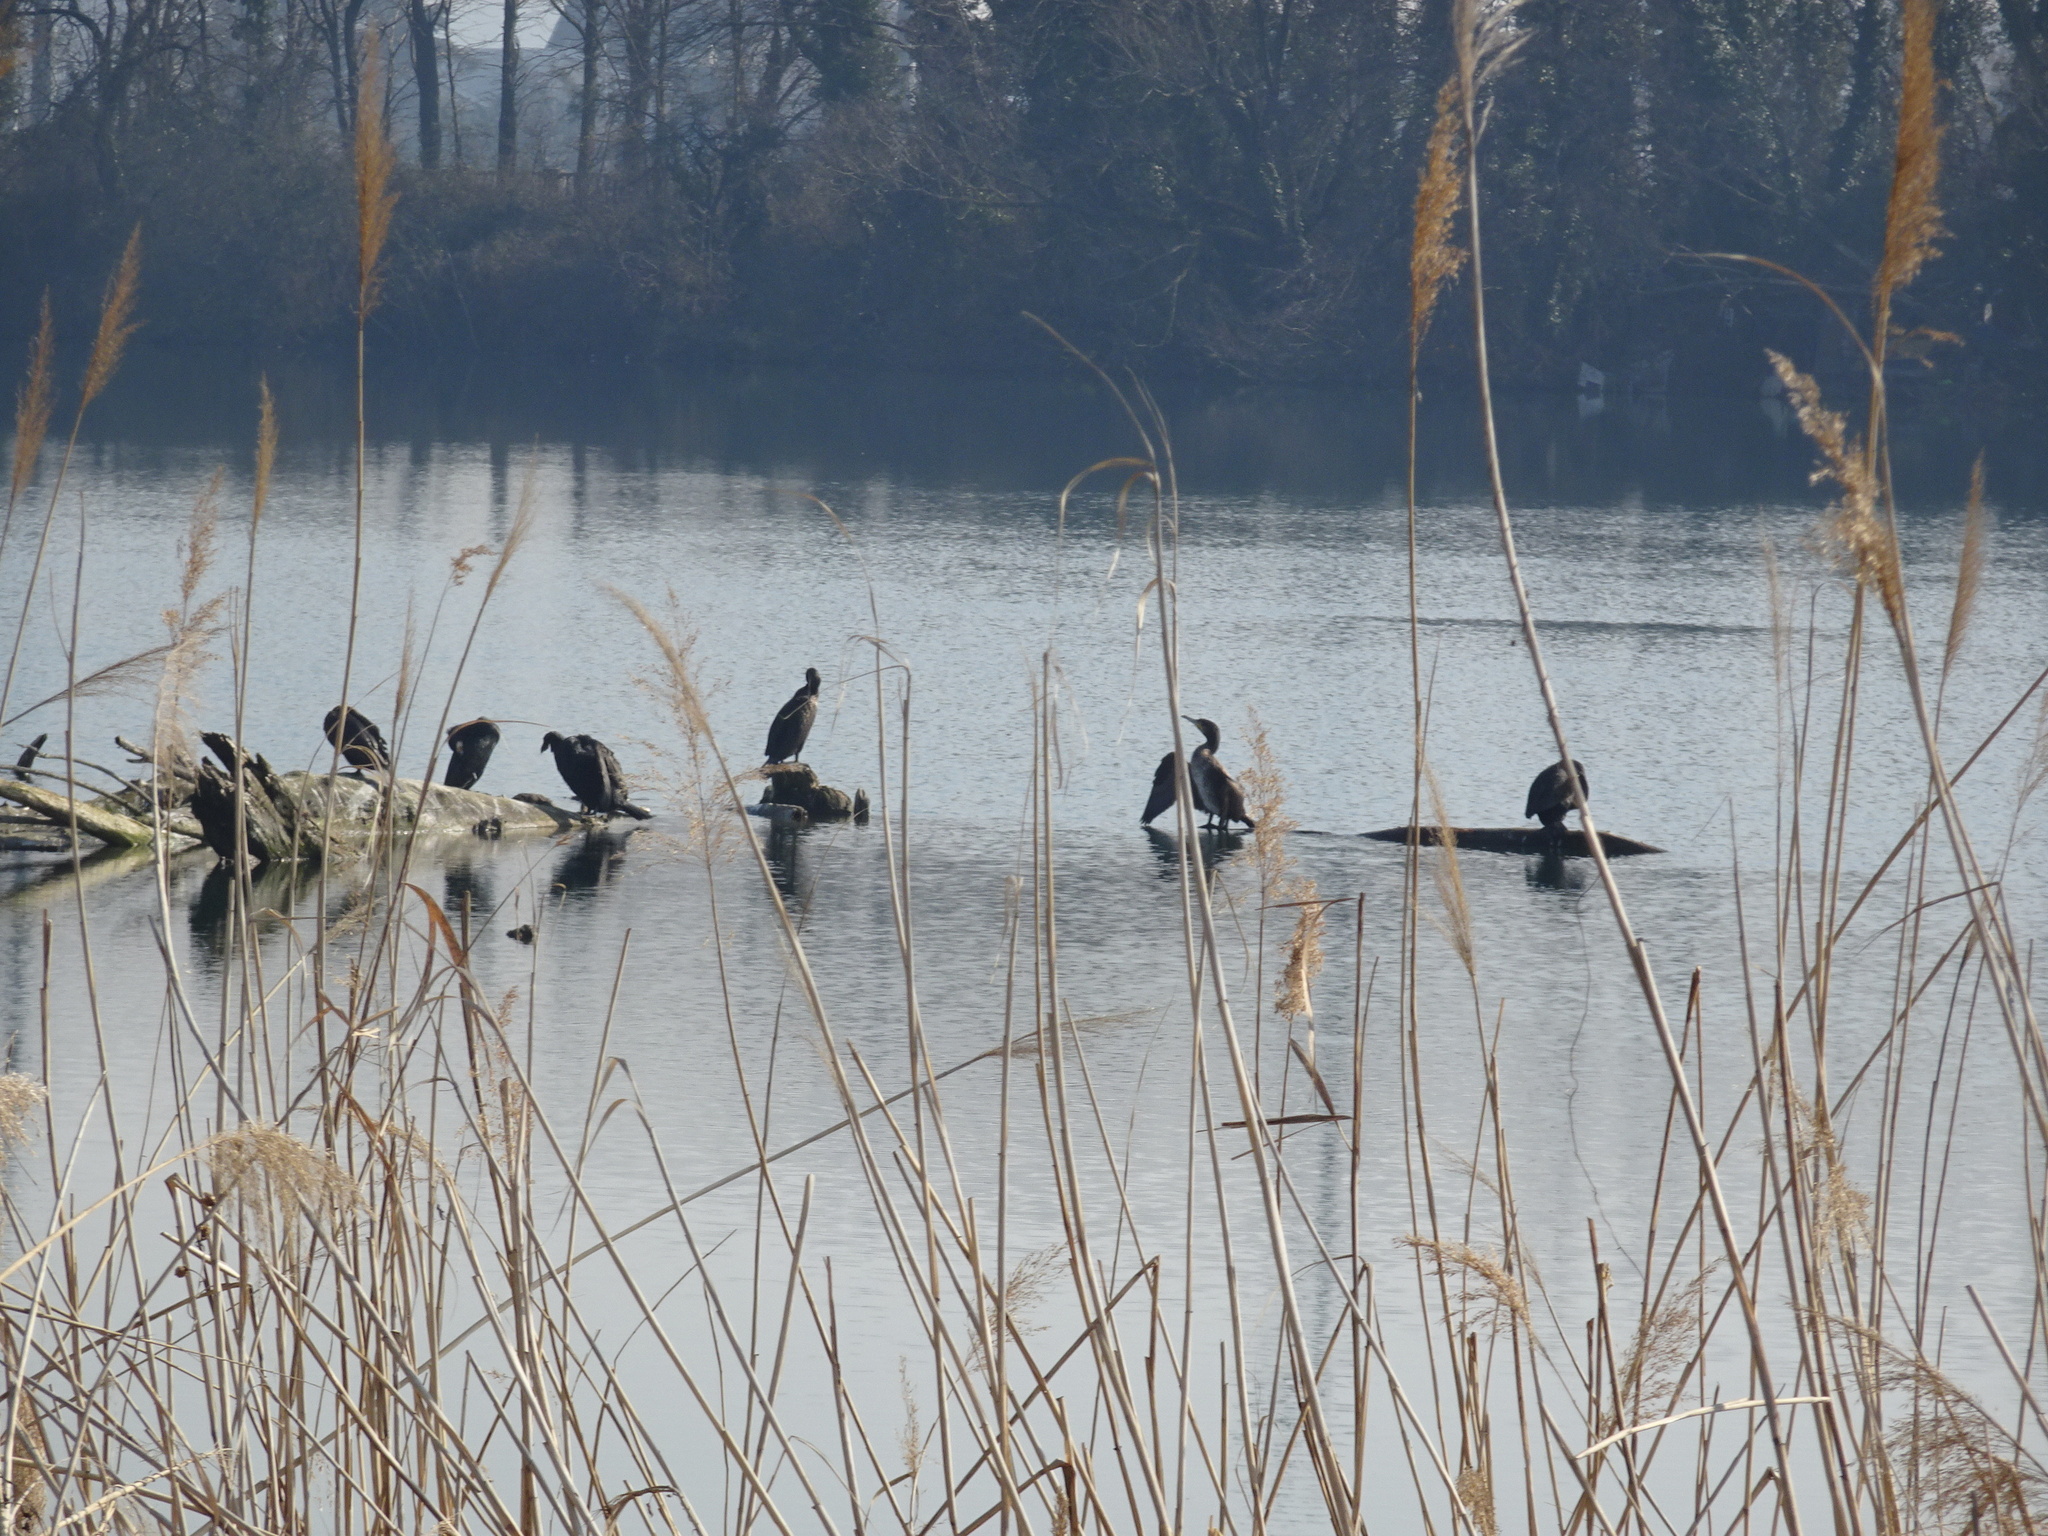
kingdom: Animalia
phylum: Chordata
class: Aves
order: Suliformes
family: Phalacrocoracidae
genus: Phalacrocorax
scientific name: Phalacrocorax carbo
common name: Great cormorant
